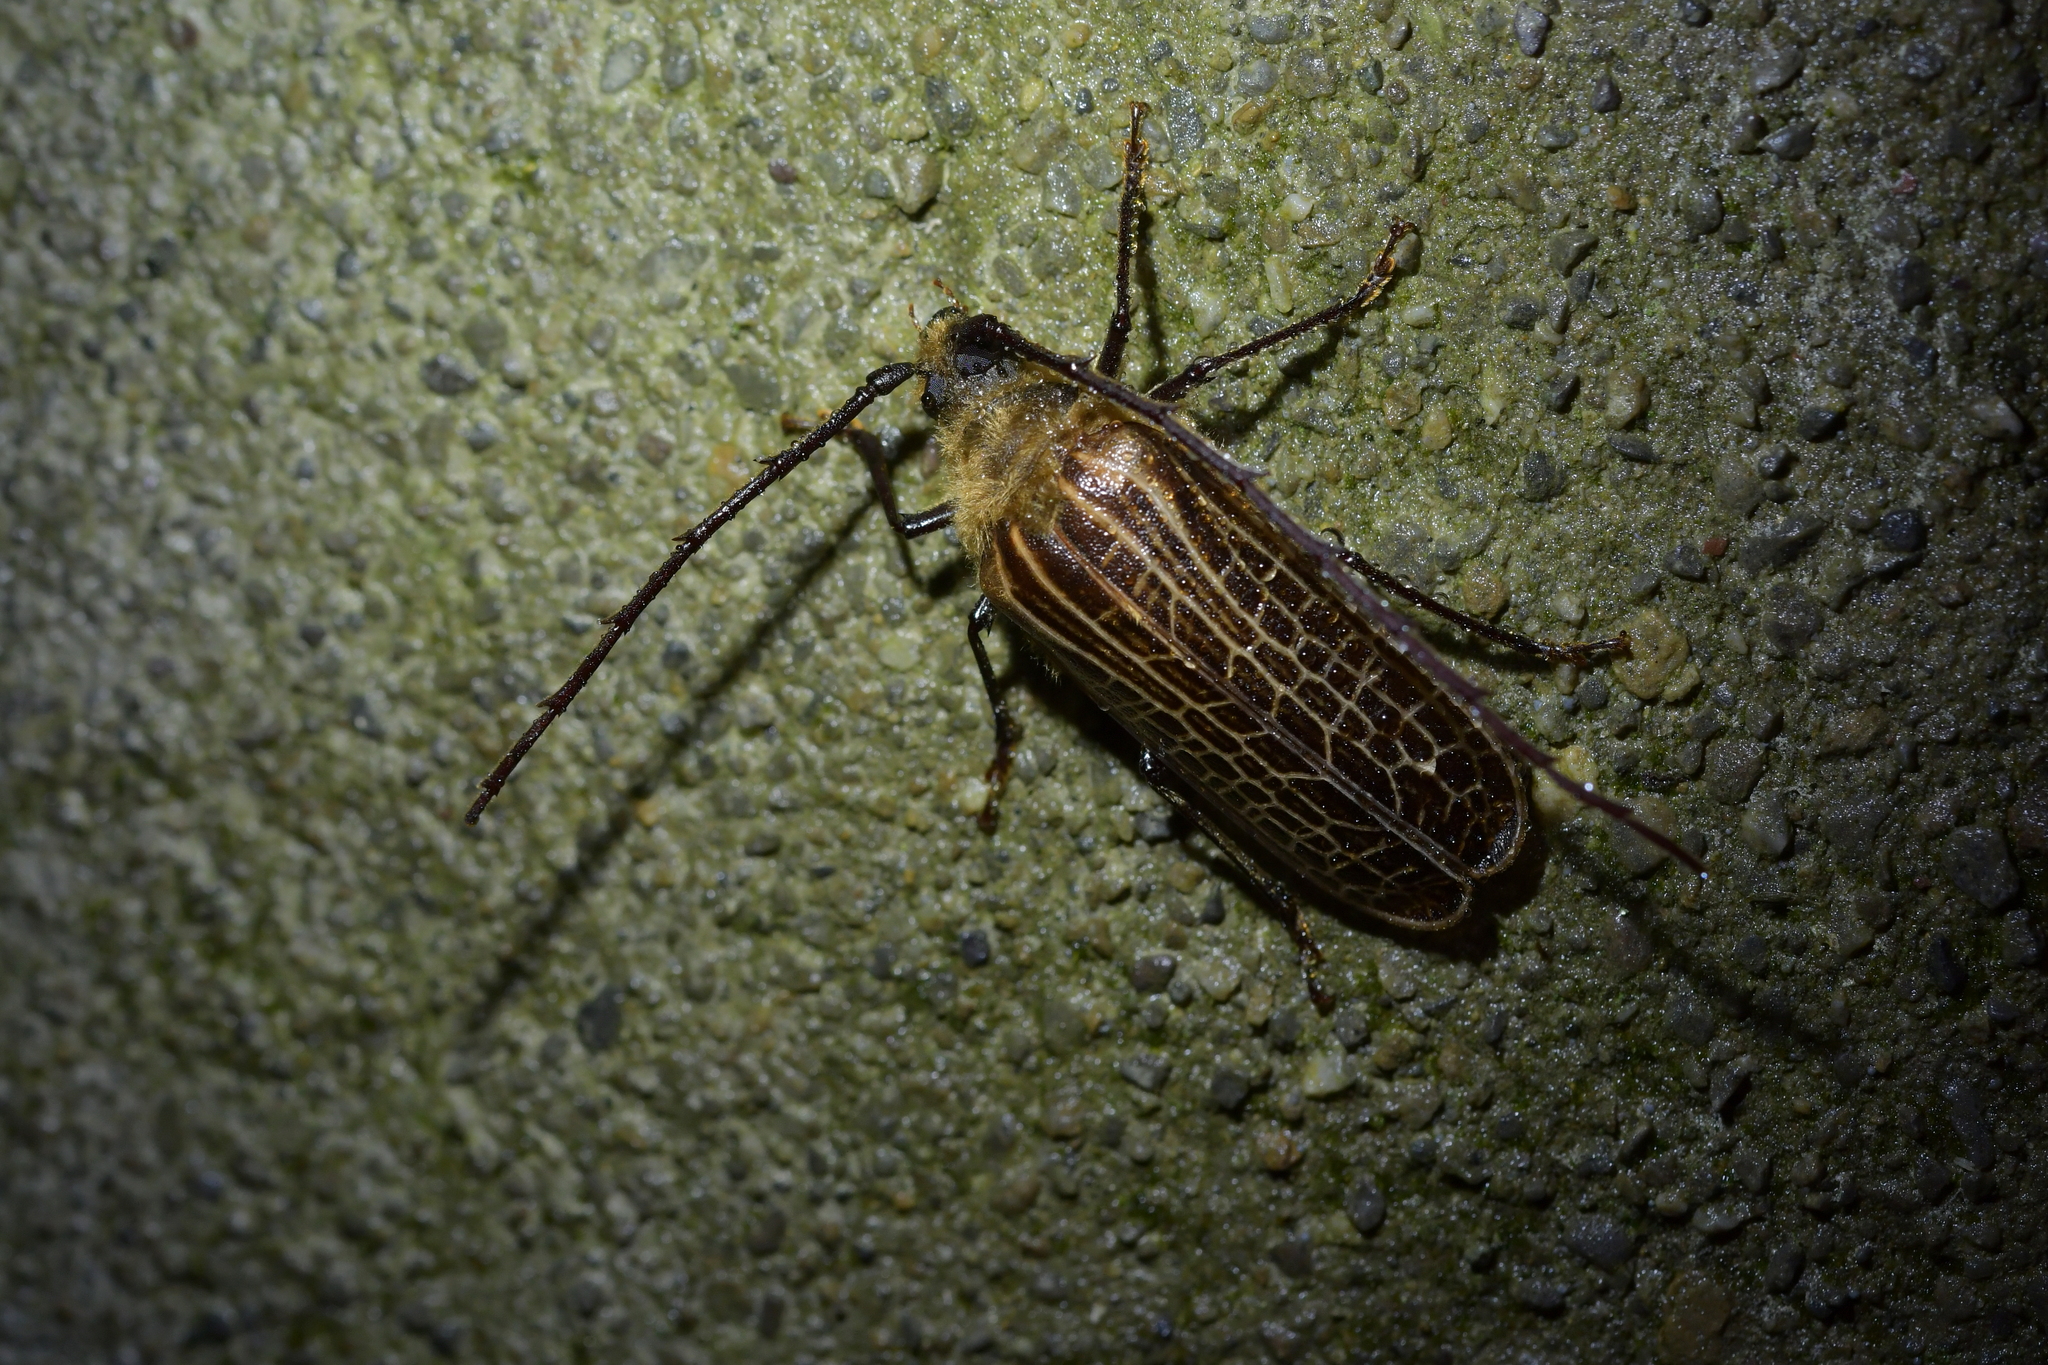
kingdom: Animalia
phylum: Arthropoda
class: Insecta
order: Coleoptera
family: Cerambycidae
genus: Prionoplus
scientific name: Prionoplus reticularis
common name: Huhu beetle
